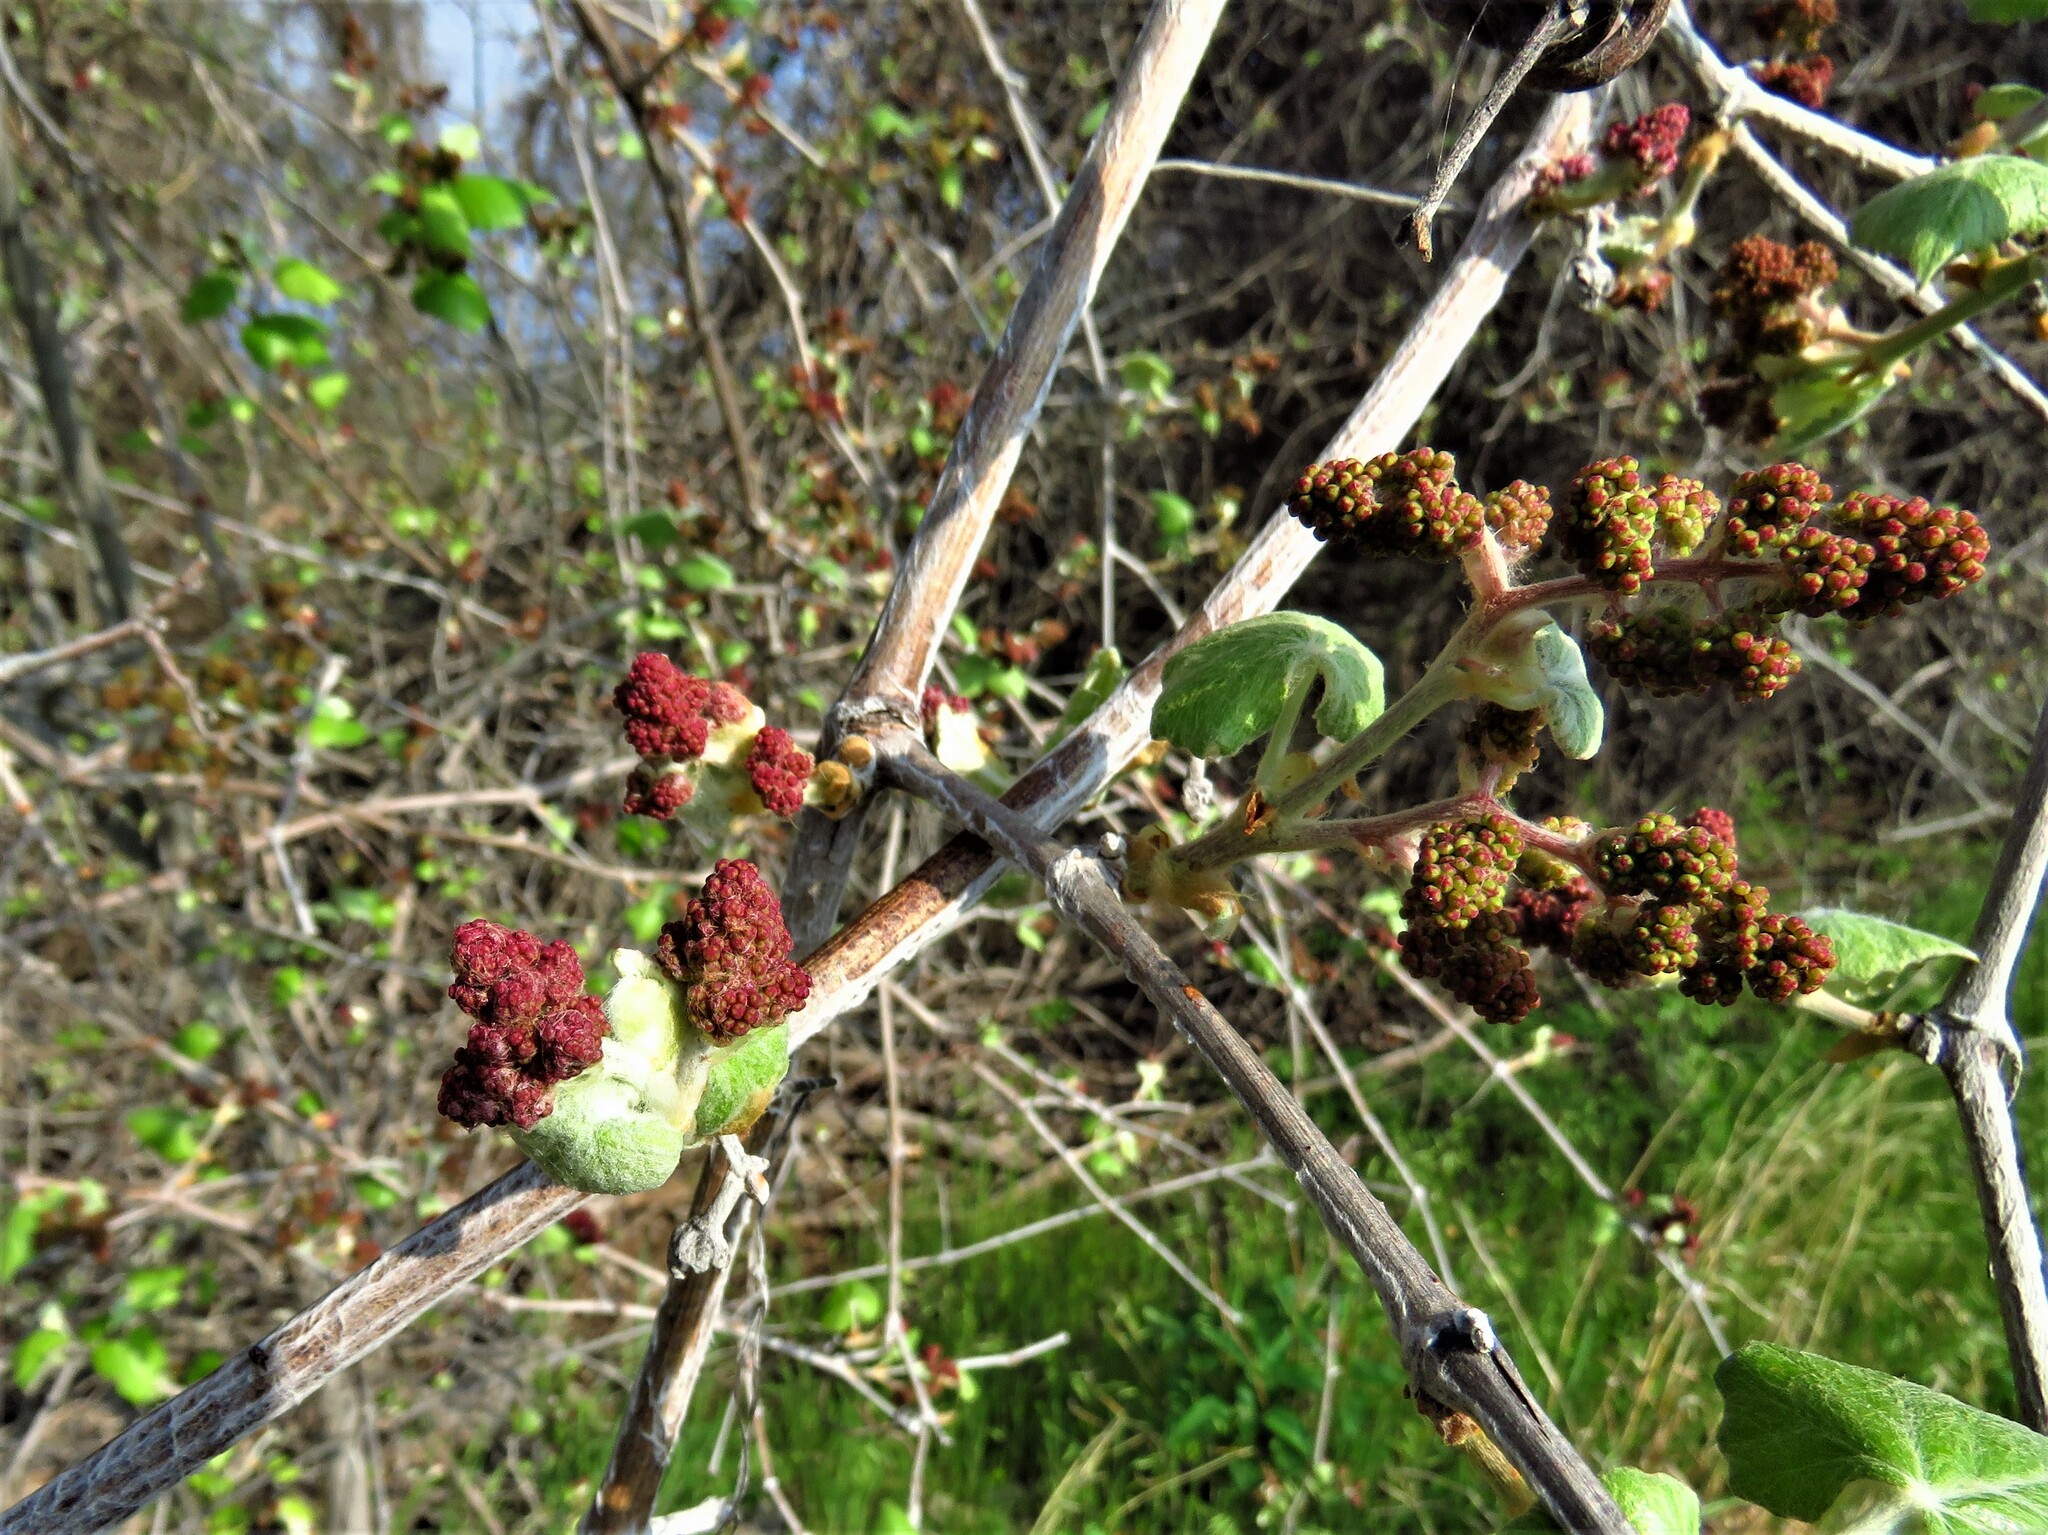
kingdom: Plantae
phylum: Tracheophyta
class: Magnoliopsida
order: Vitales
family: Vitaceae
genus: Vitis
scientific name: Vitis mustangensis
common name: Mustang grape
